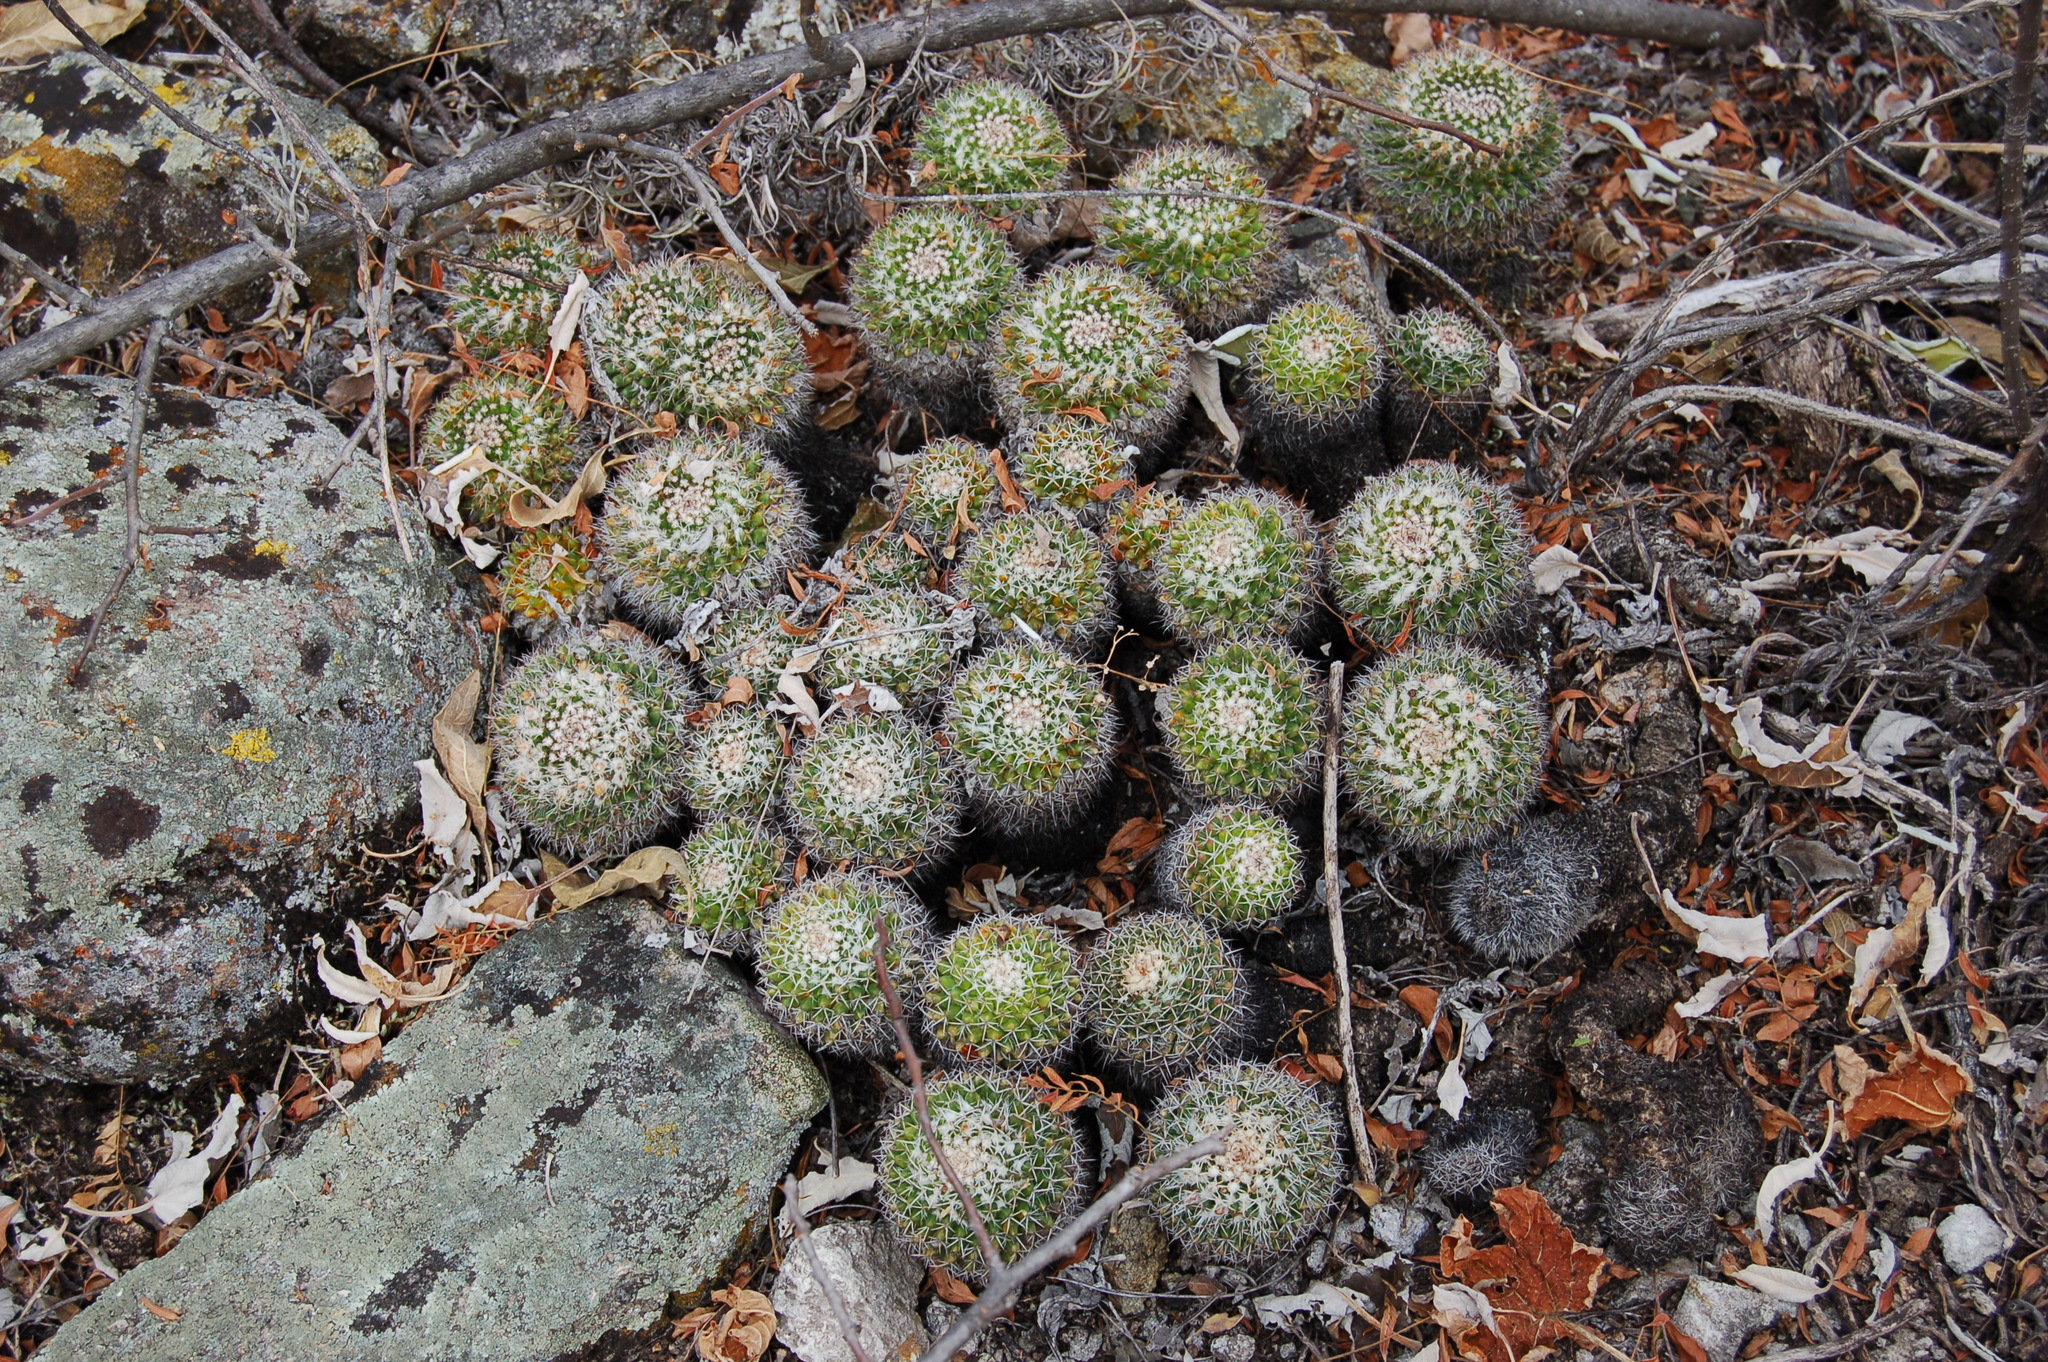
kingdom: Plantae
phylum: Tracheophyta
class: Magnoliopsida
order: Caryophyllales
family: Cactaceae
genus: Mammillaria
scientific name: Mammillaria karwinskiana
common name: Royal cross
